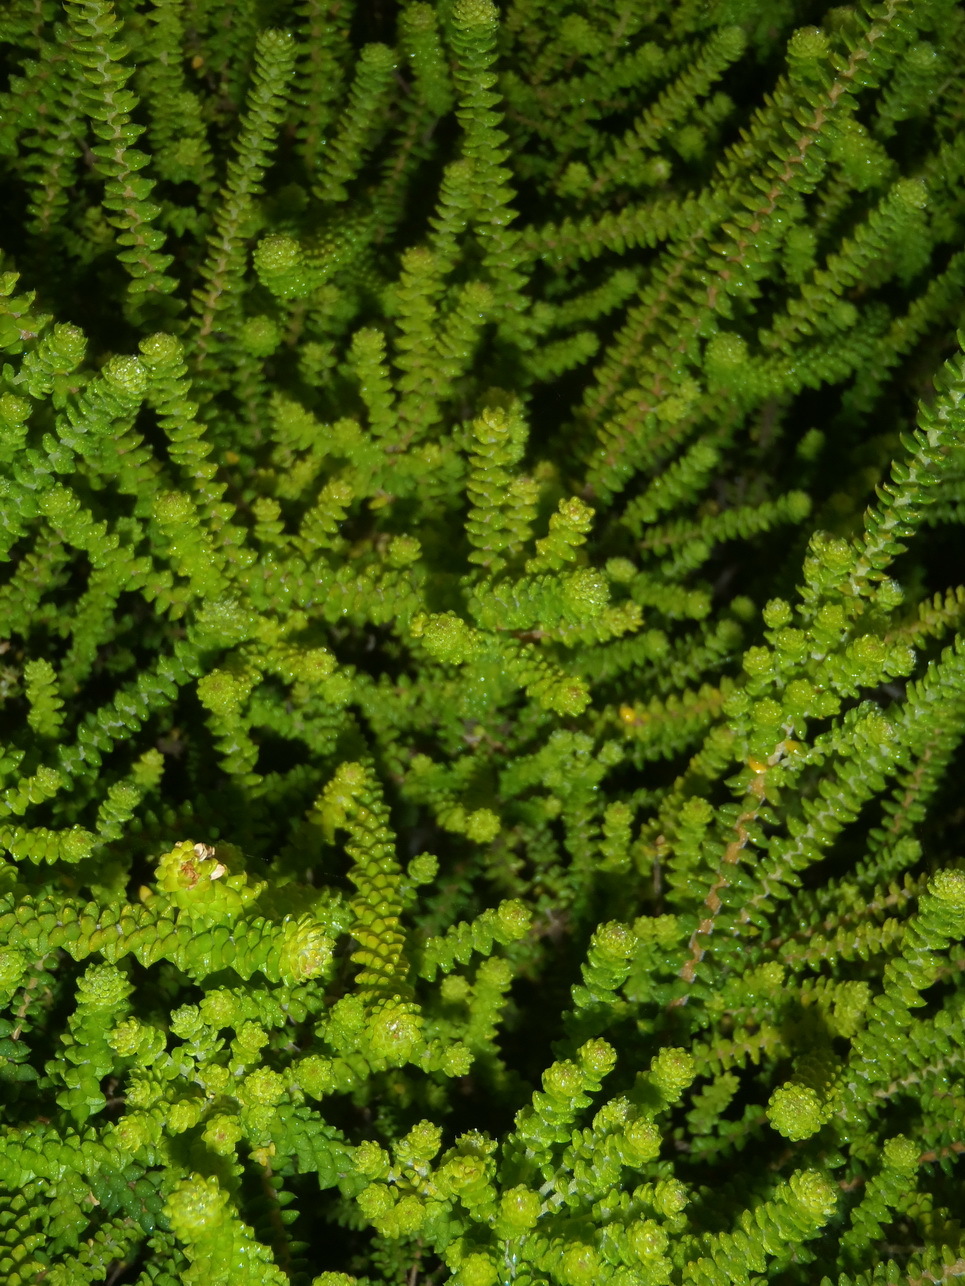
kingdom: Plantae
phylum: Tracheophyta
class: Magnoliopsida
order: Sapindales
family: Rutaceae
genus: Agathosma
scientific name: Agathosma eriantha
